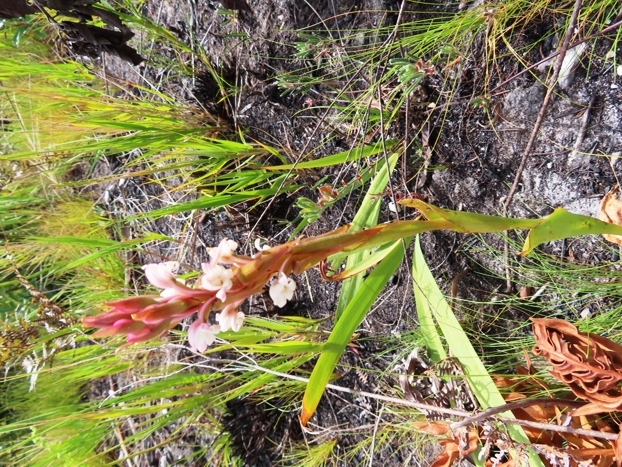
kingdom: Plantae
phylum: Tracheophyta
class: Liliopsida
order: Asparagales
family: Orchidaceae
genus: Satyrium
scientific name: Satyrium acuminatum
